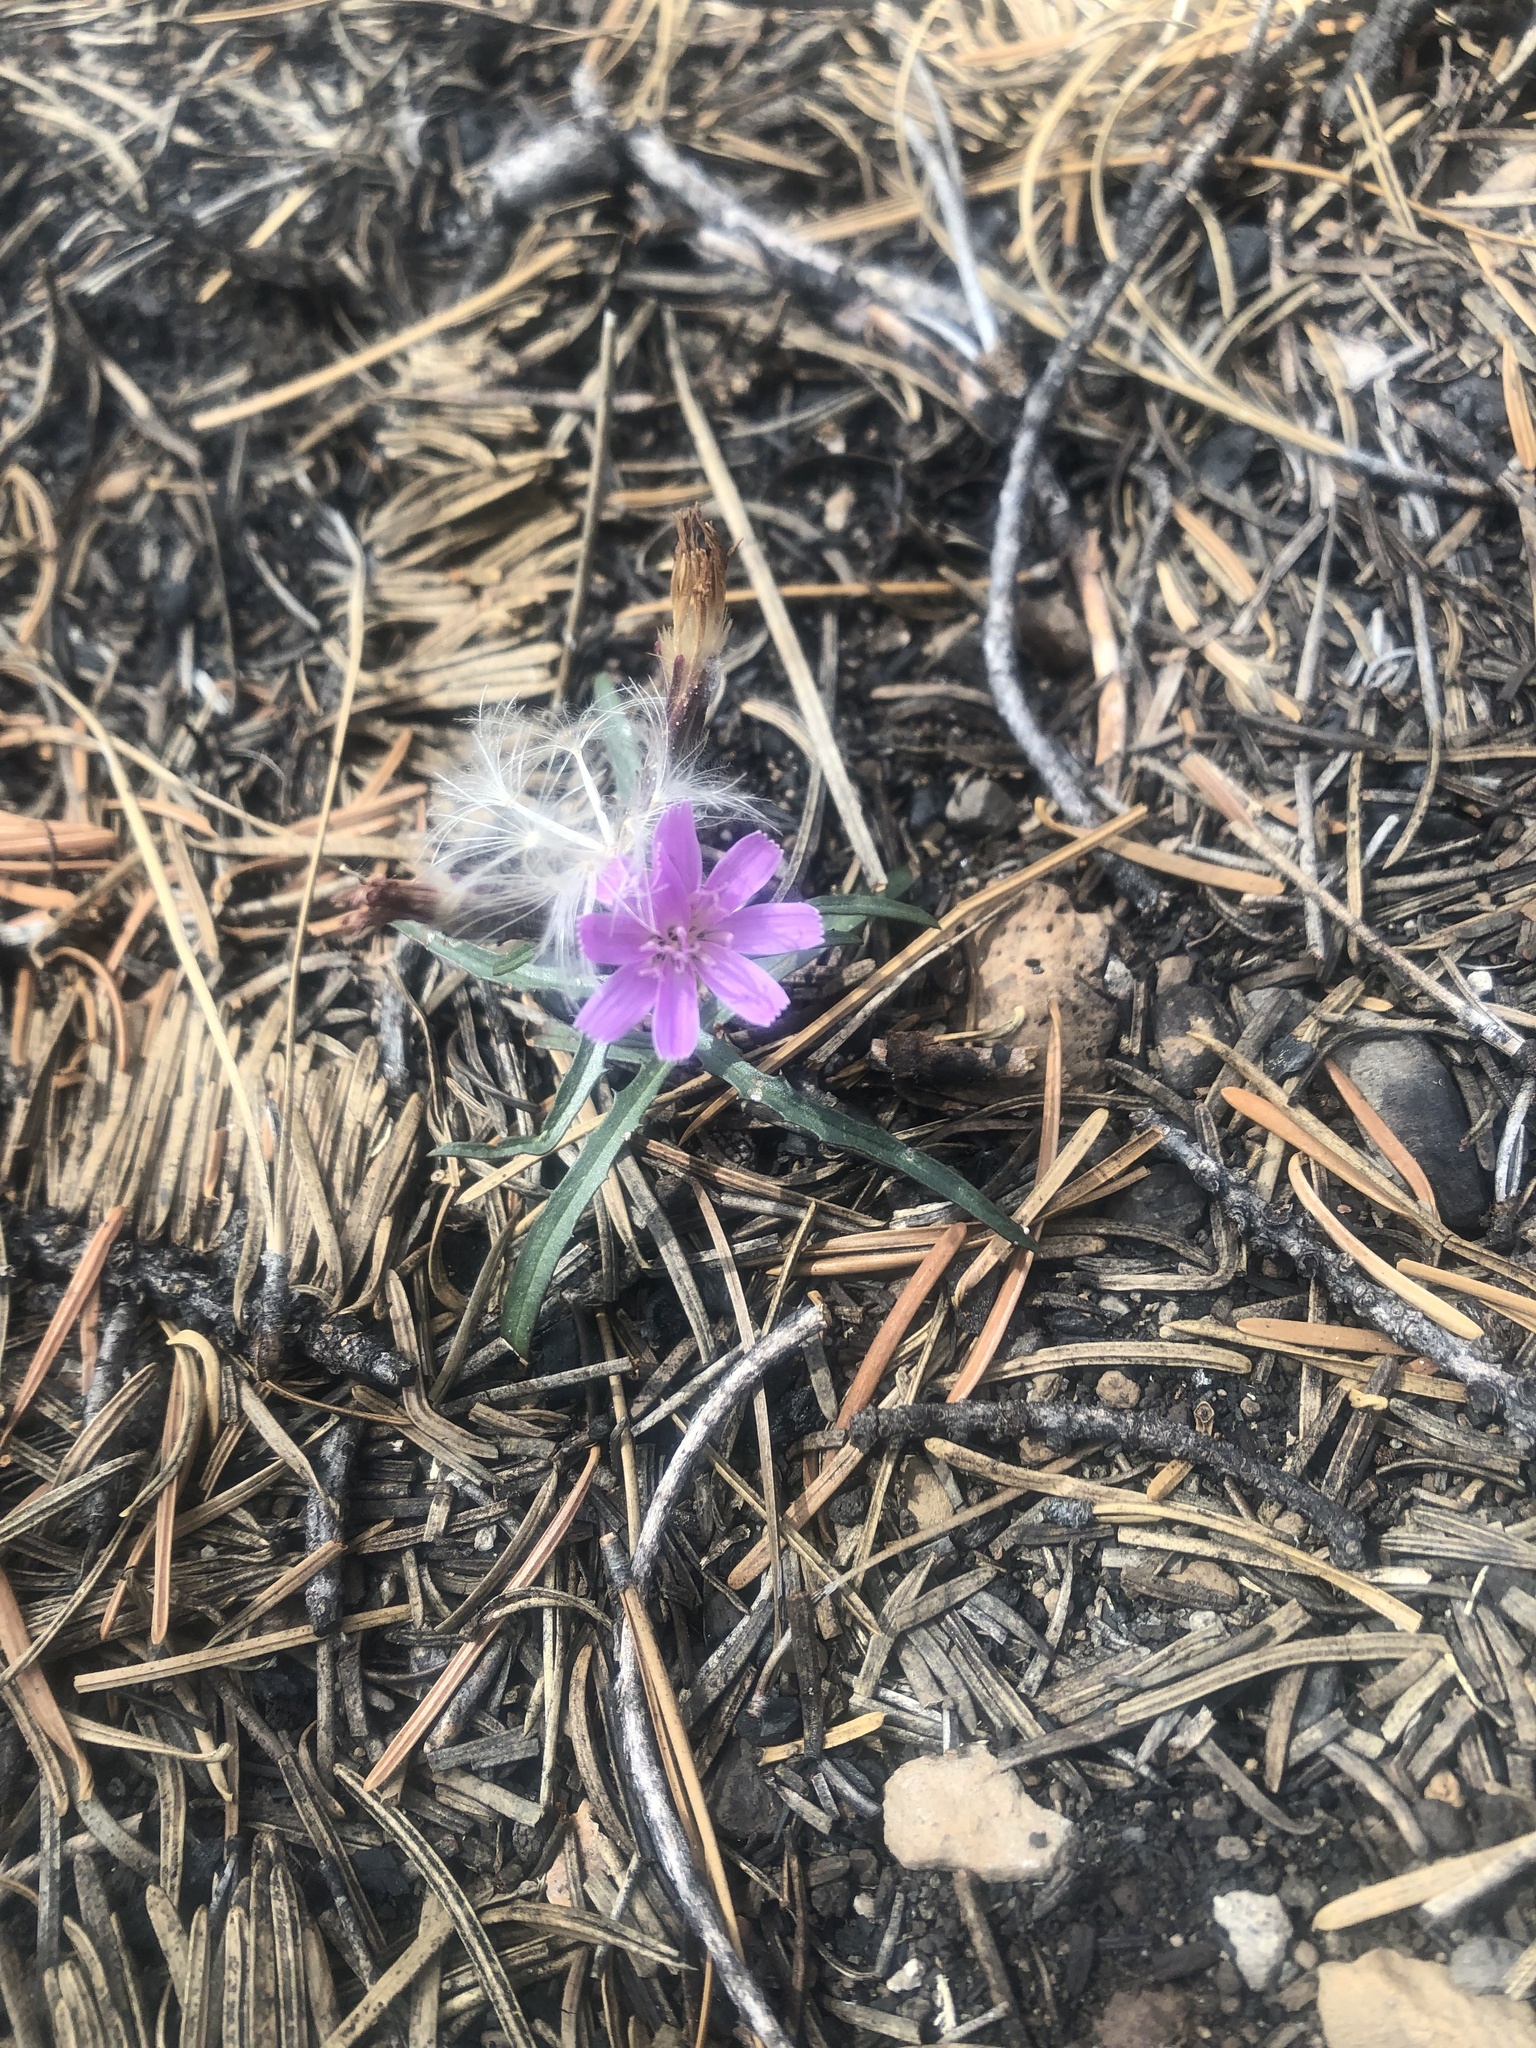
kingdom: Plantae
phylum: Tracheophyta
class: Magnoliopsida
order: Asterales
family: Asteraceae
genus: Stephanomeria
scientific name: Stephanomeria lactucina
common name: Large-flowered wirelettuce
